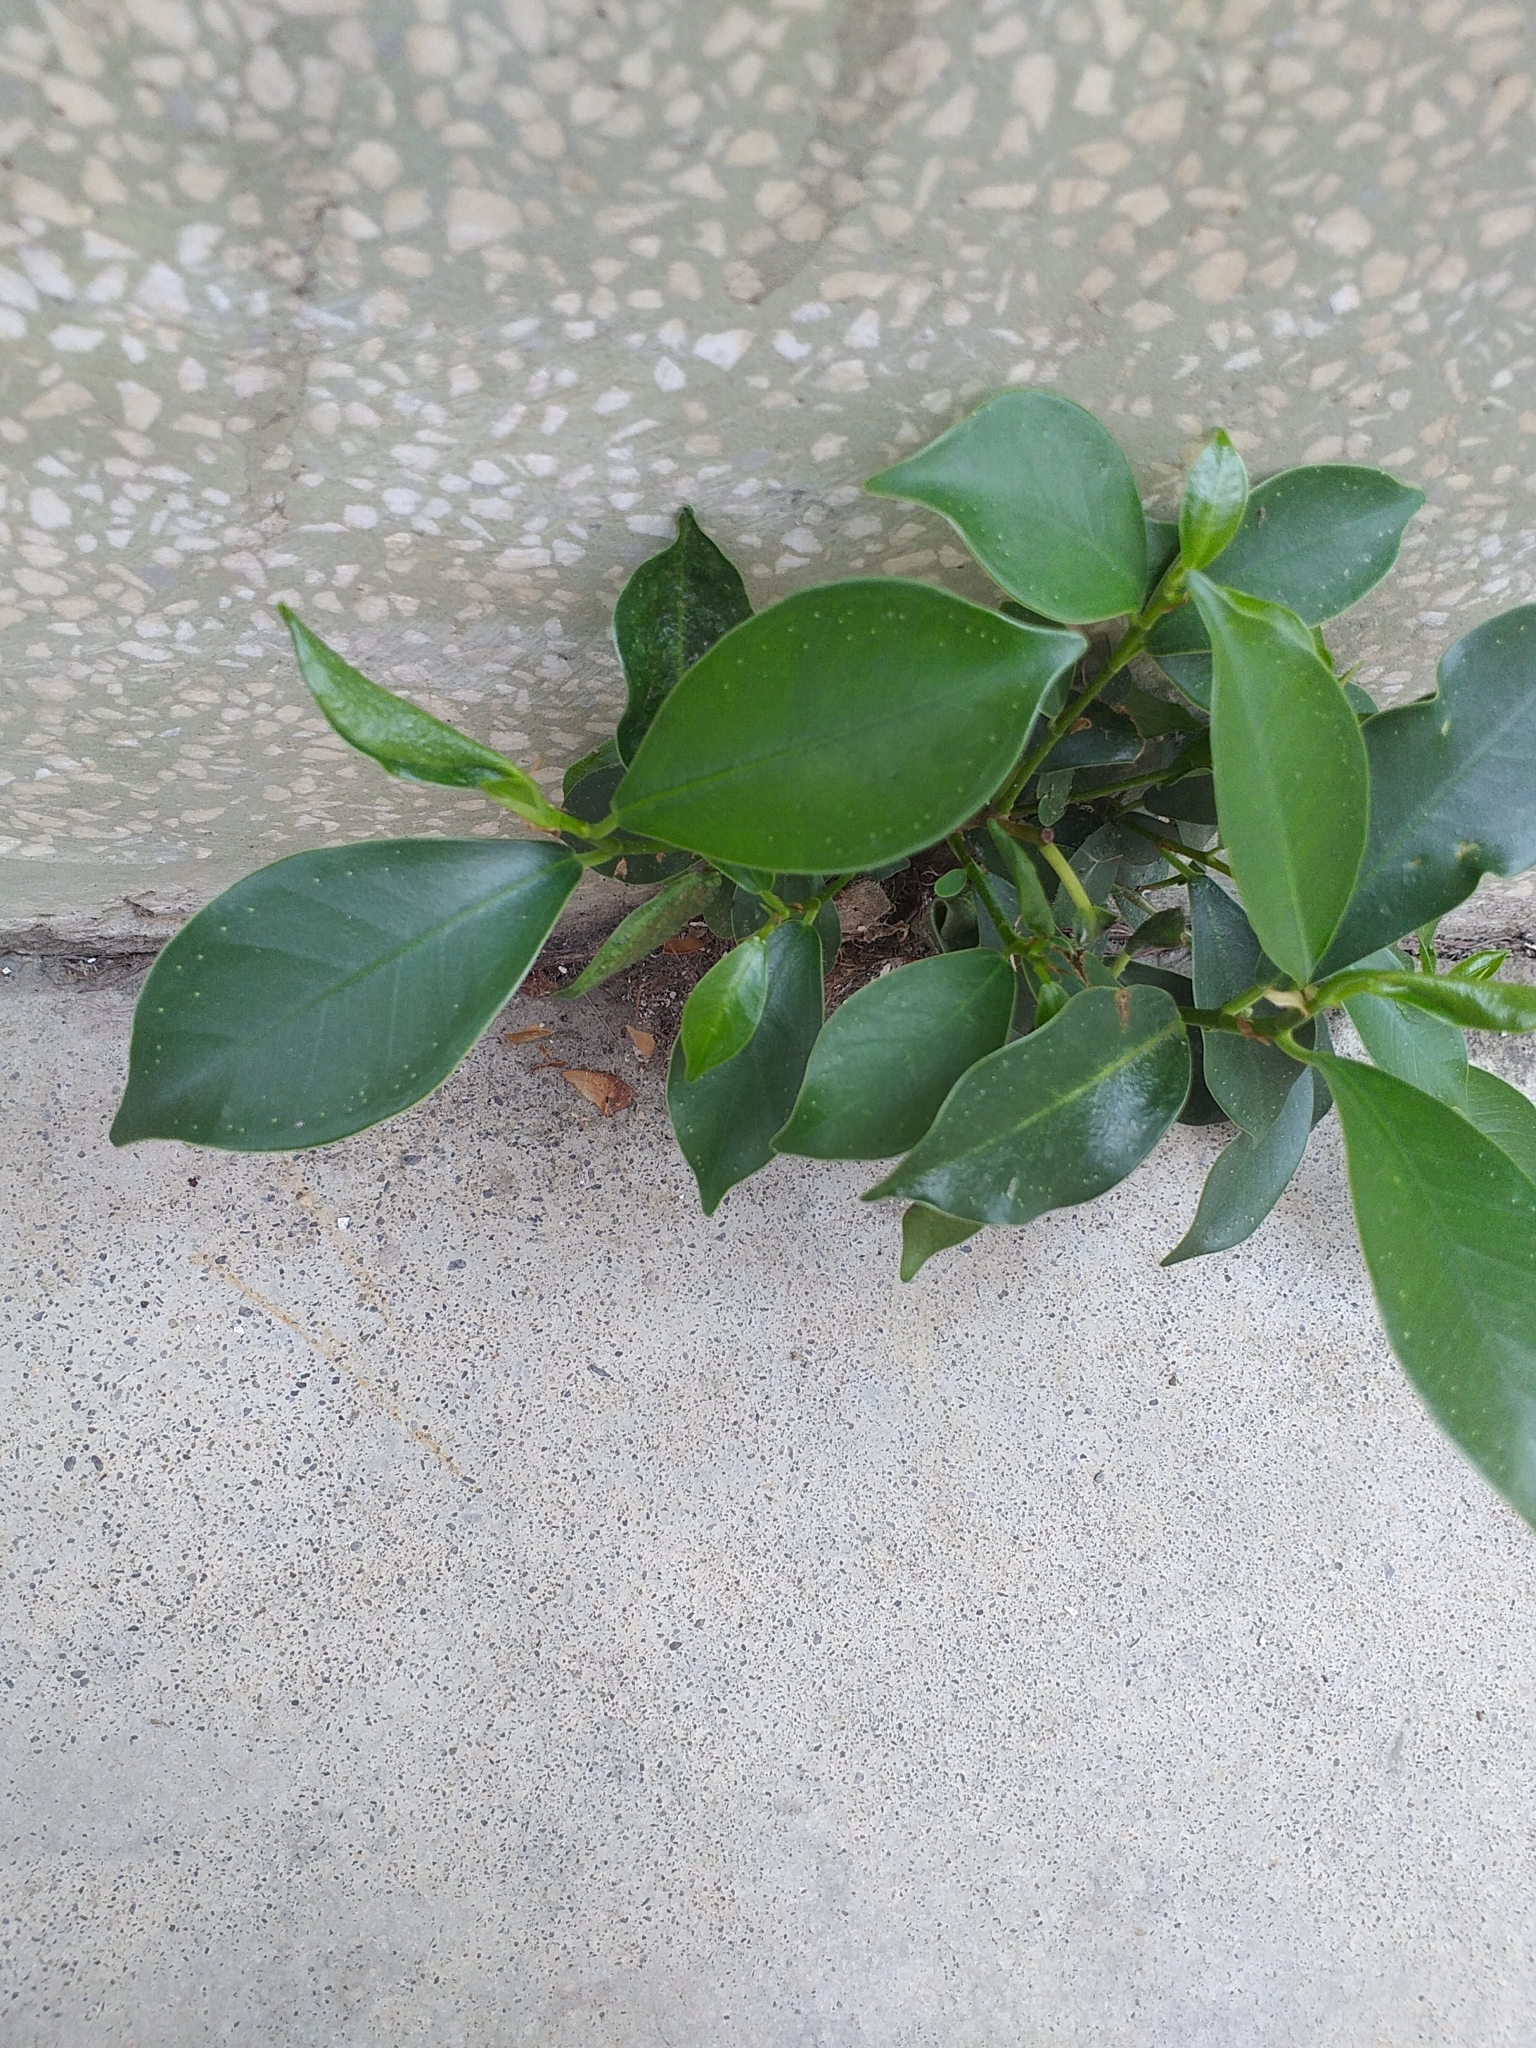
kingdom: Plantae
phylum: Tracheophyta
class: Magnoliopsida
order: Rosales
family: Moraceae
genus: Ficus
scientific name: Ficus microcarpa
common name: Chinese banyan
